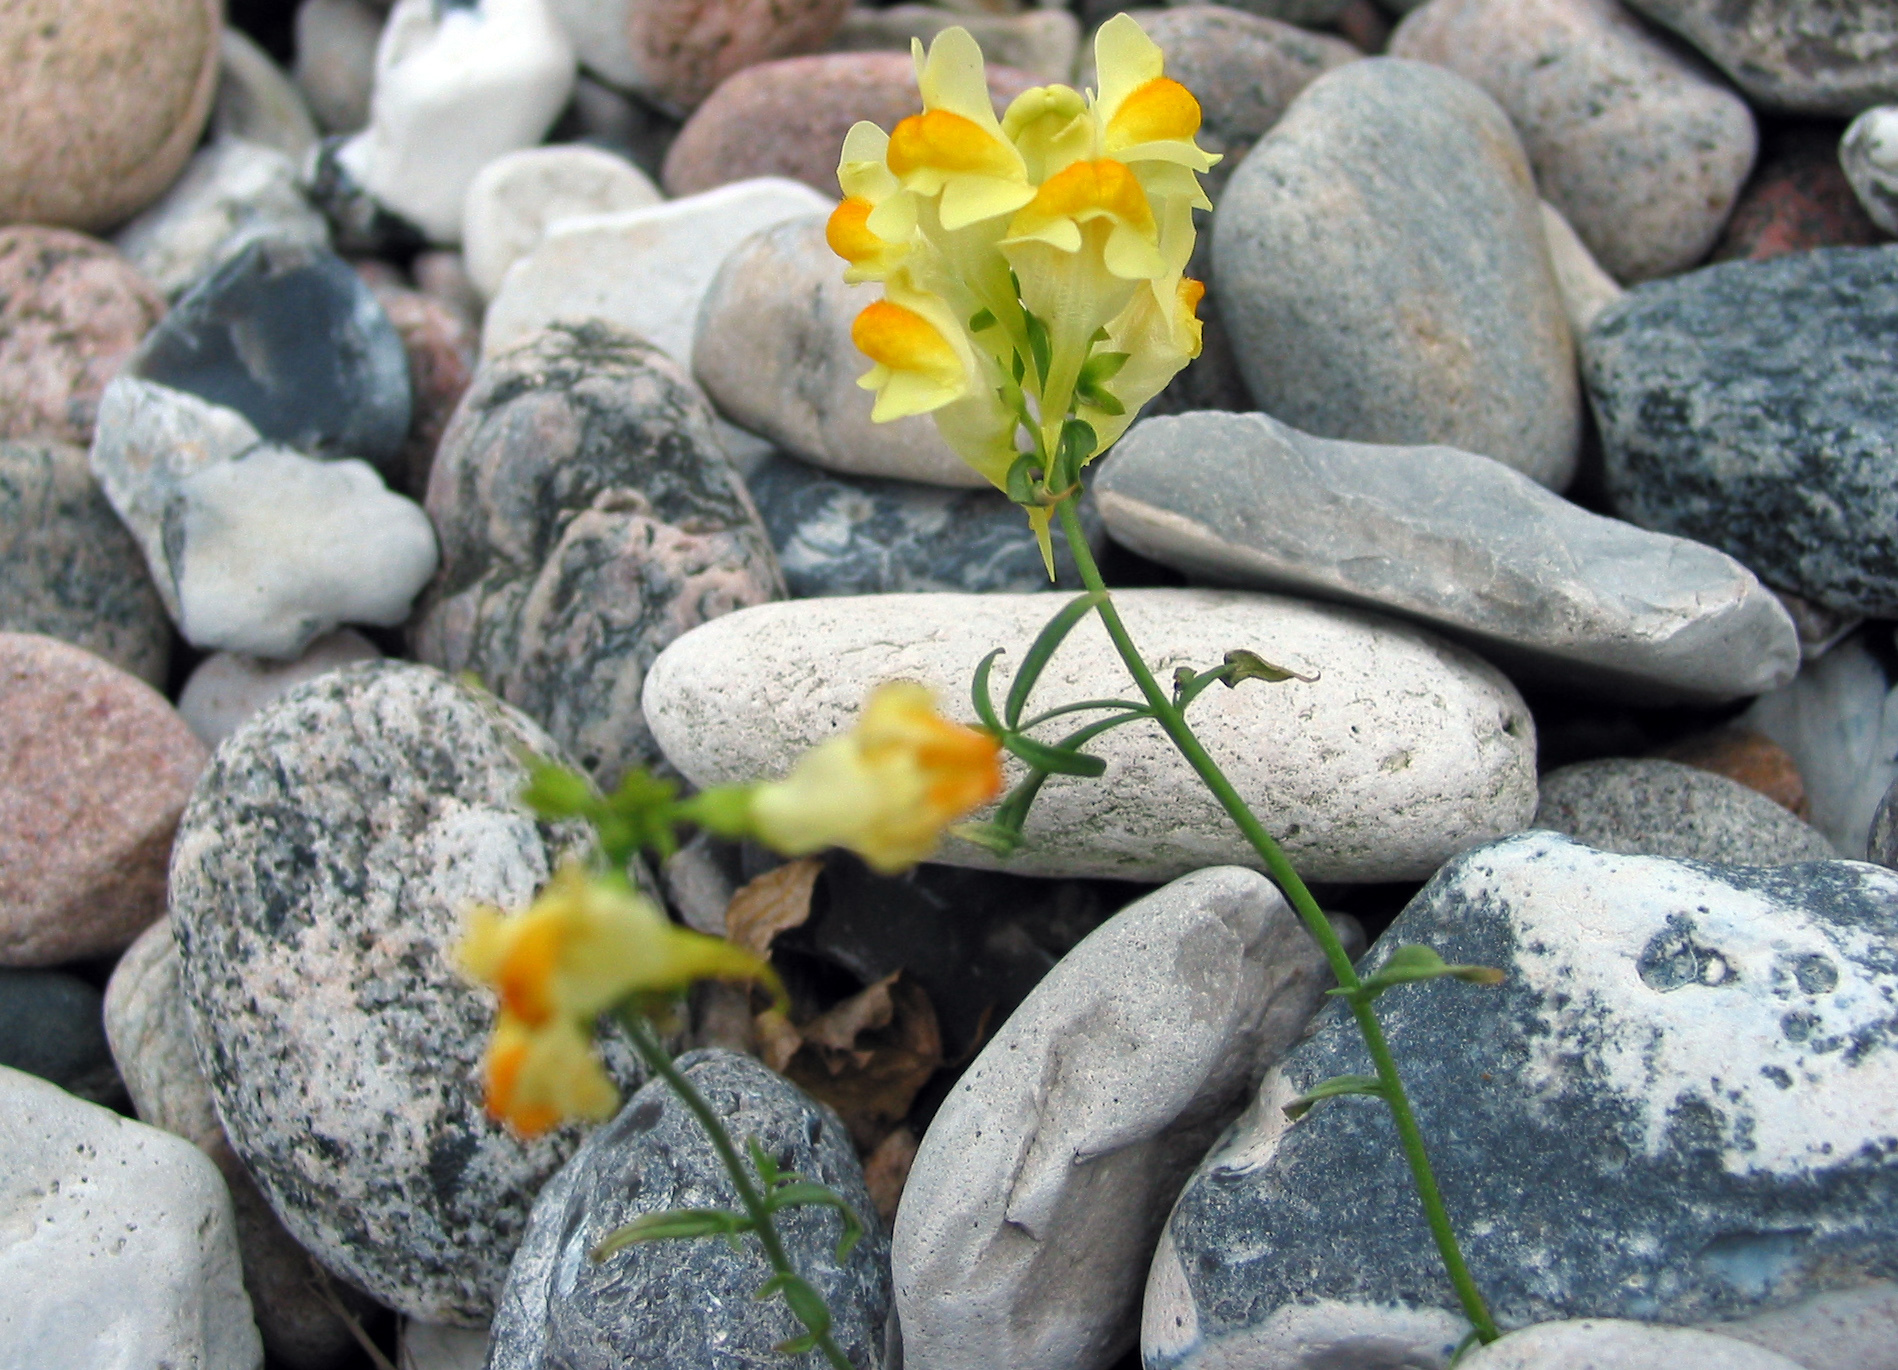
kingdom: Plantae
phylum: Tracheophyta
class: Magnoliopsida
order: Lamiales
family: Plantaginaceae
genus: Linaria
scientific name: Linaria vulgaris
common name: Butter and eggs
